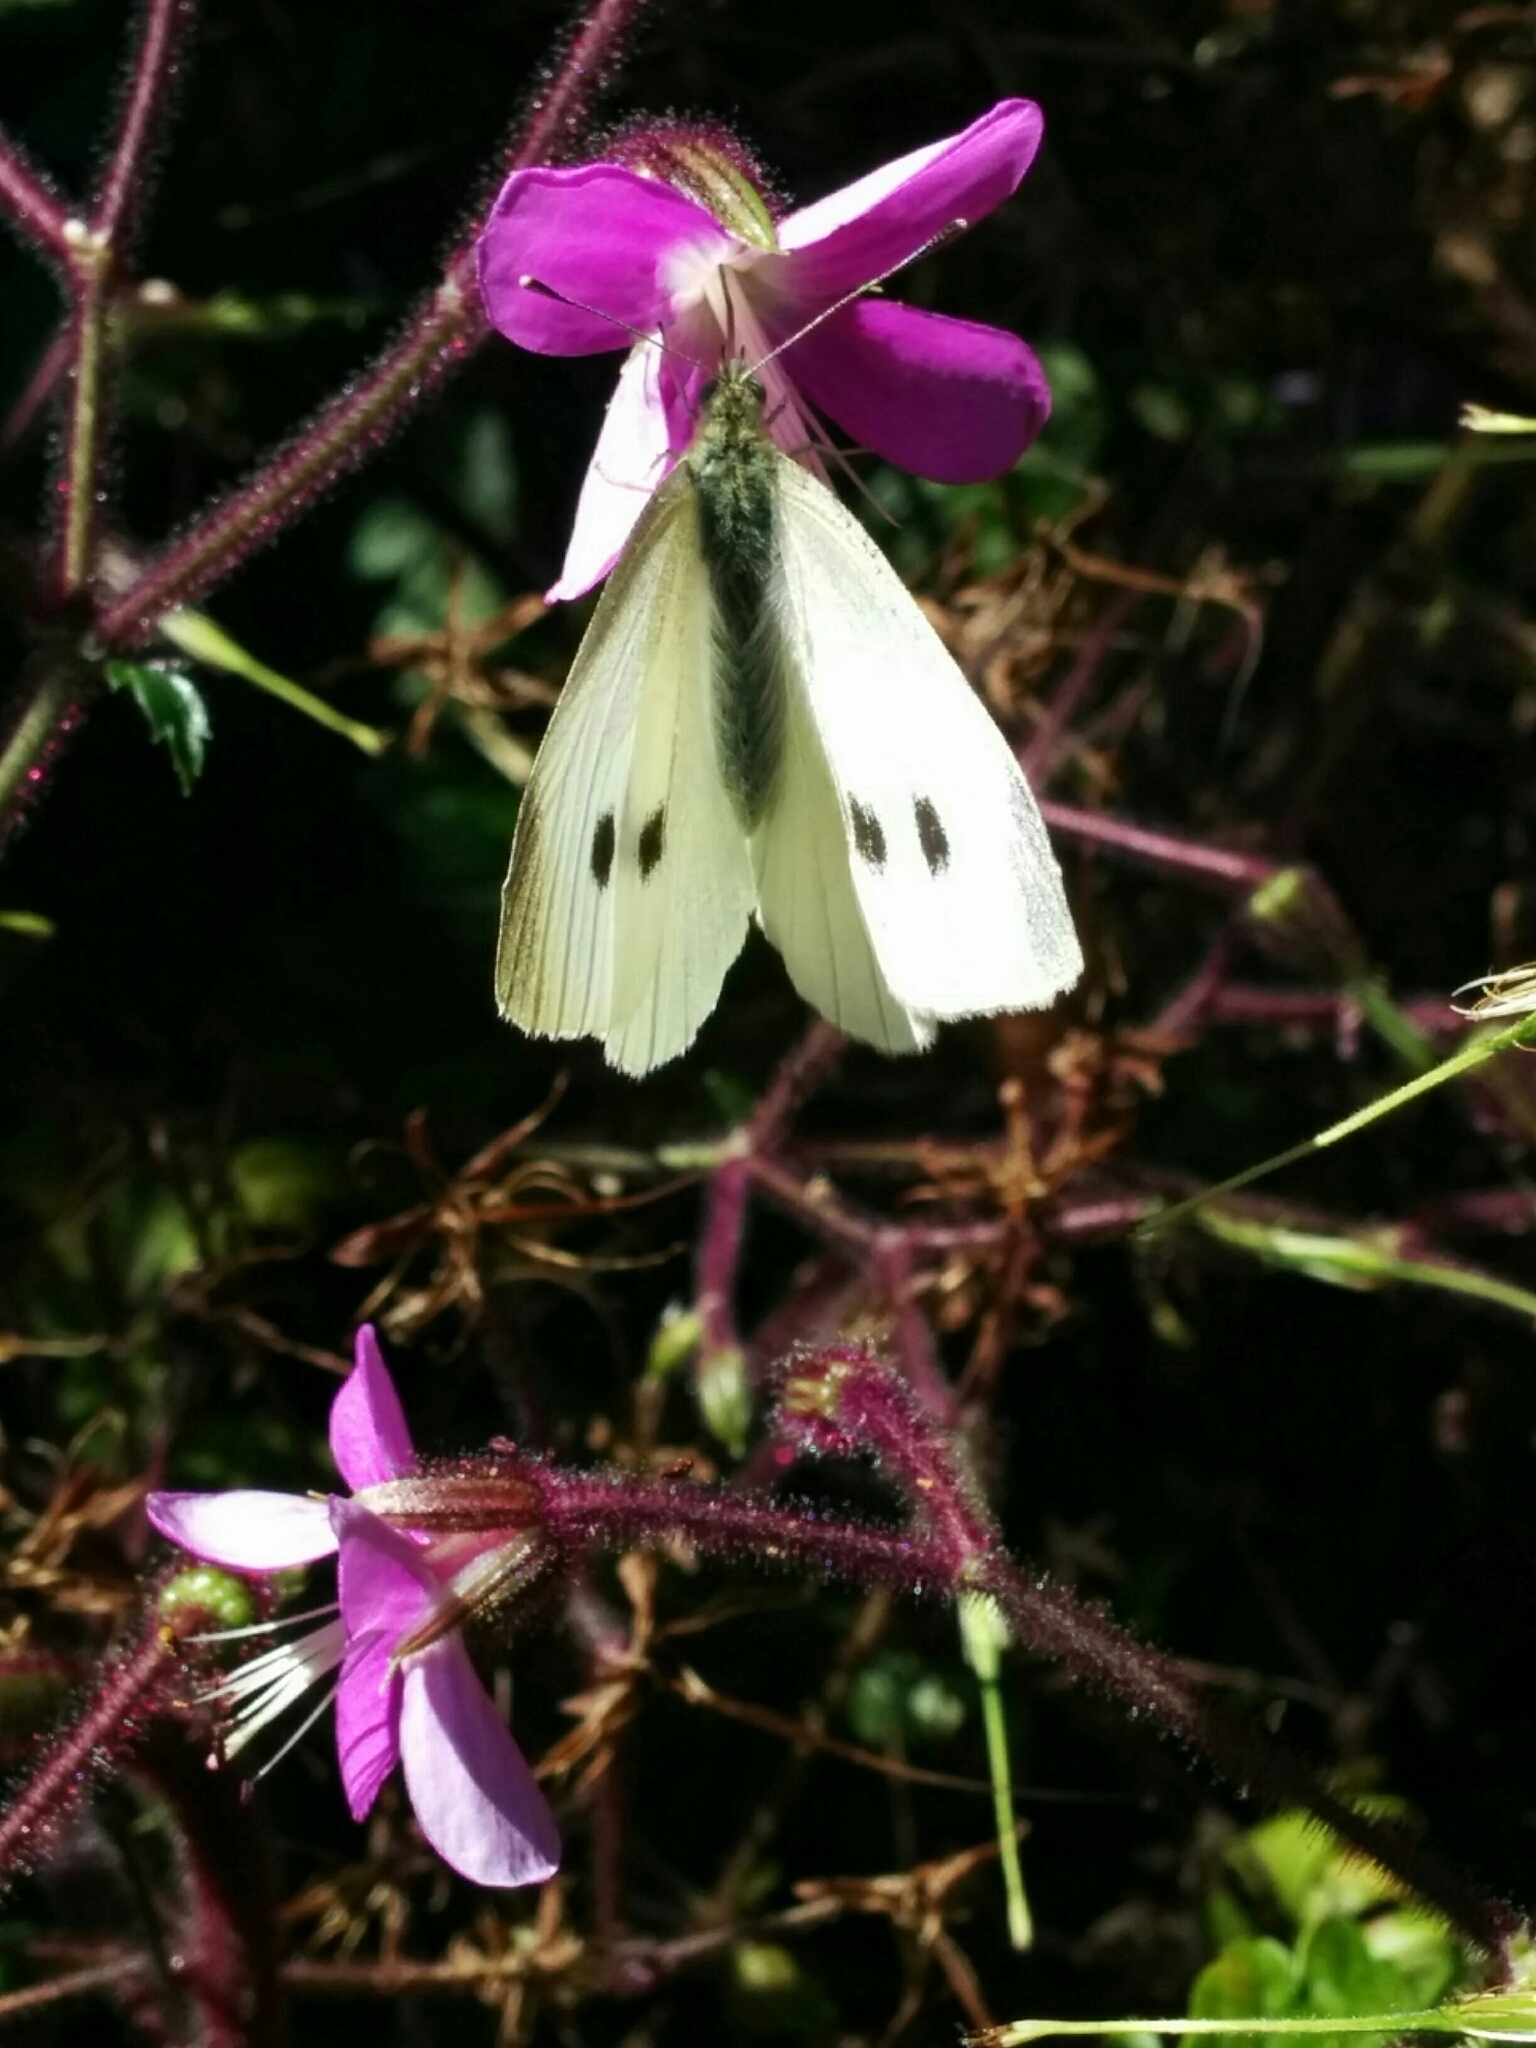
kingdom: Animalia
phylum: Arthropoda
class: Insecta
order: Lepidoptera
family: Pieridae
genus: Pieris
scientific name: Pieris rapae
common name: Small white
